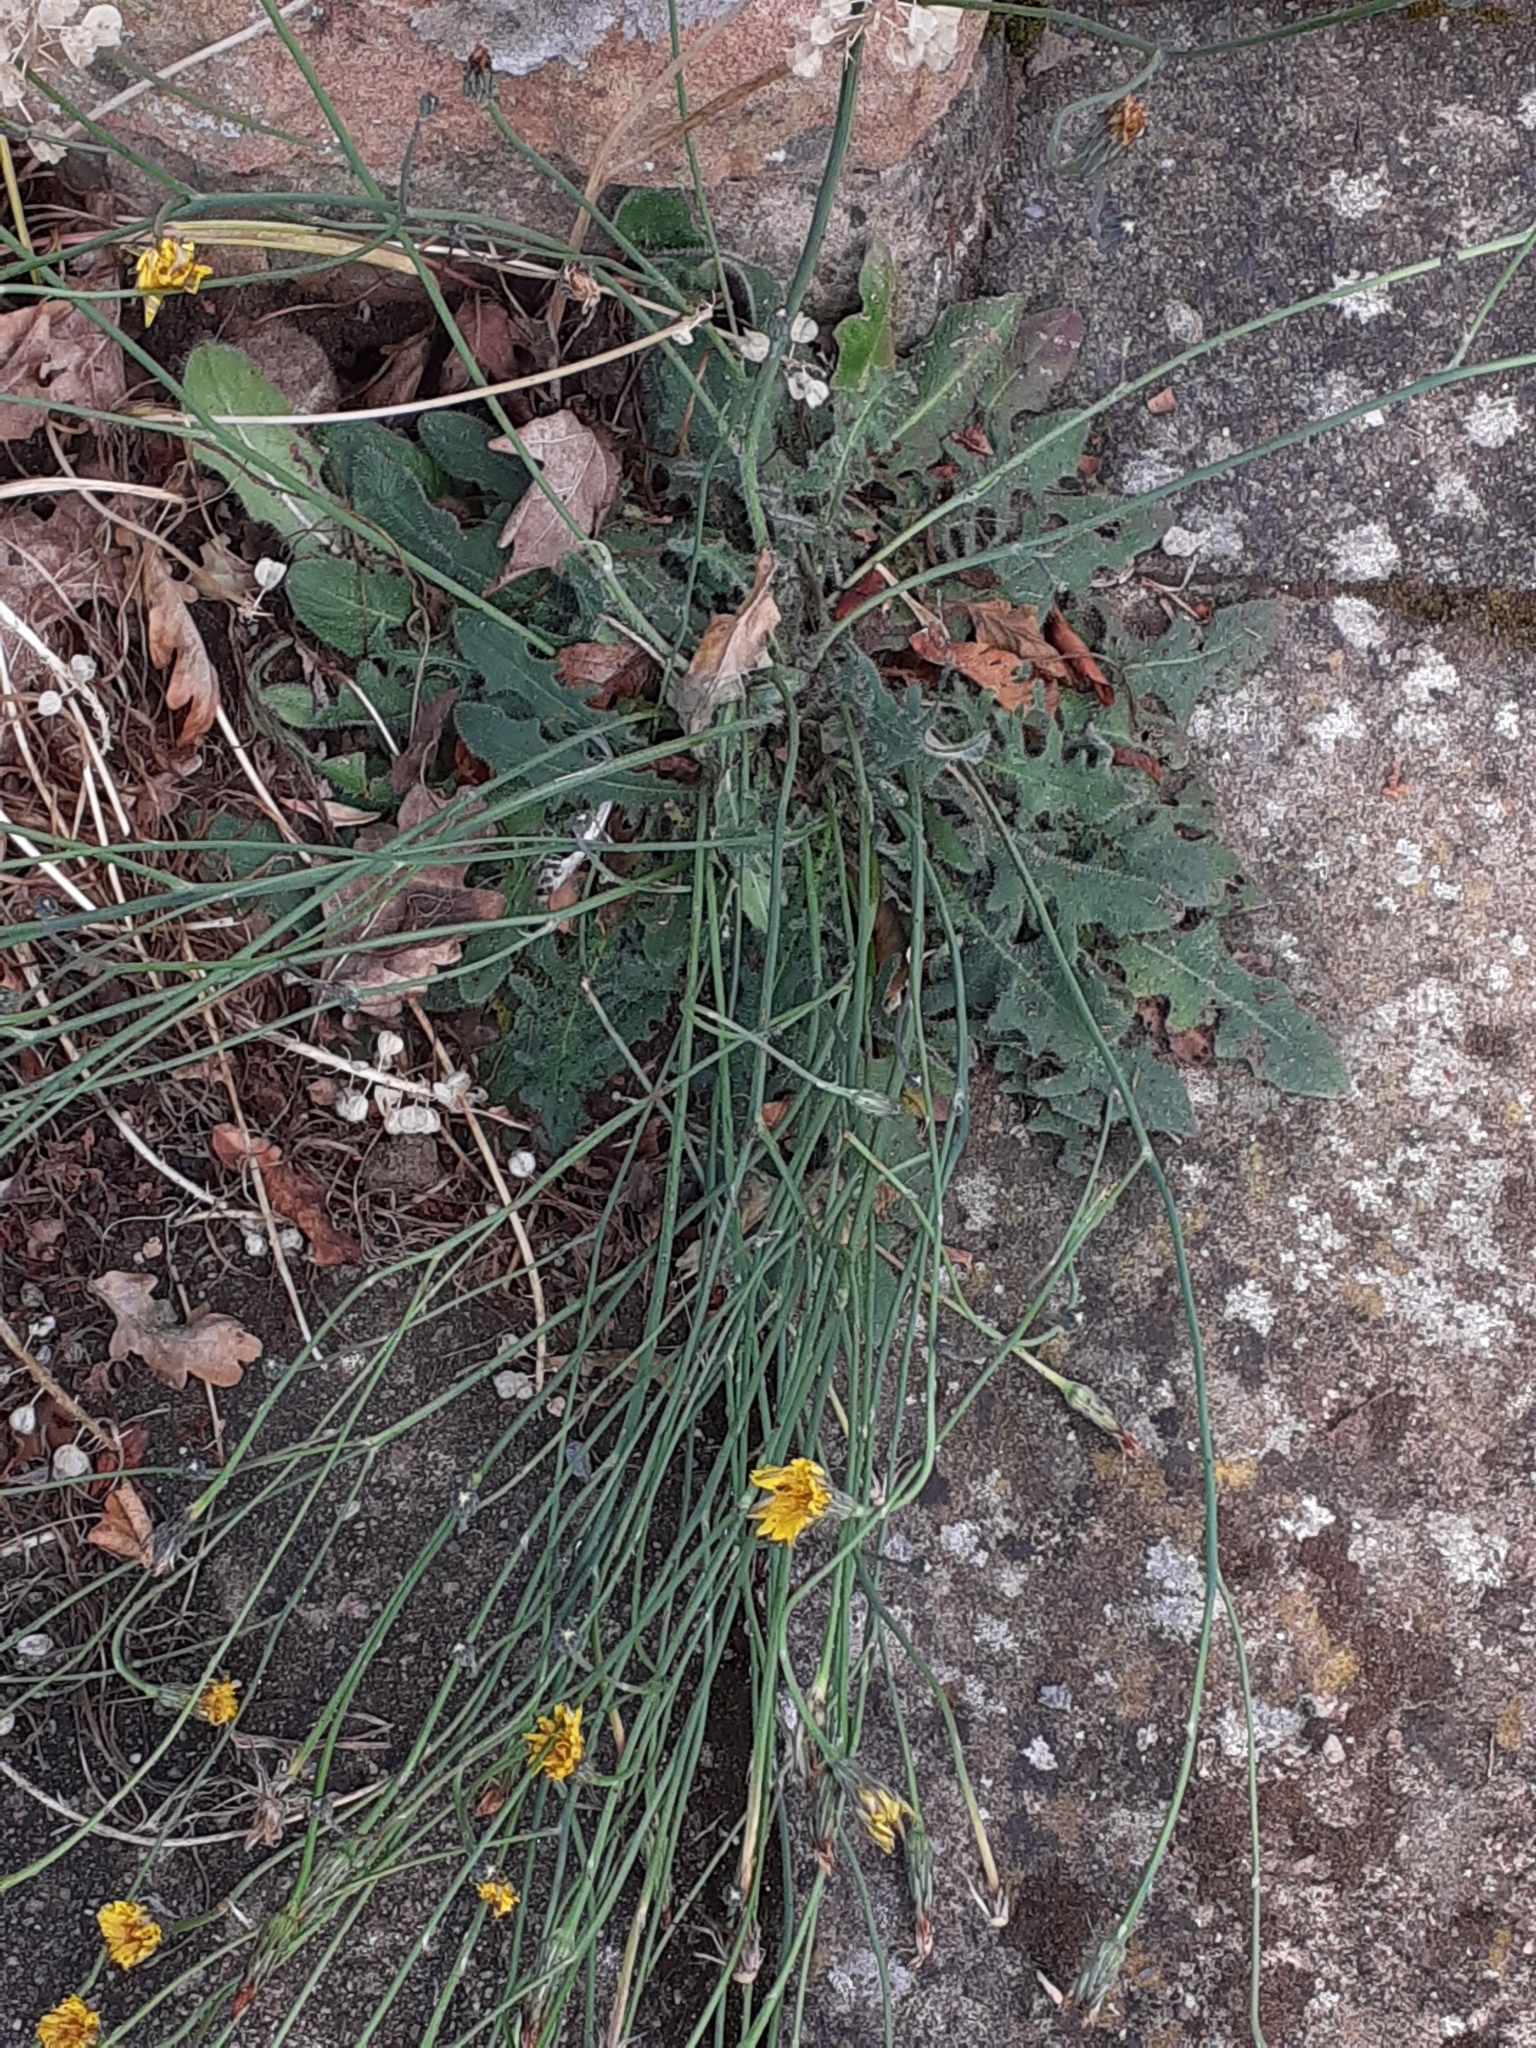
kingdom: Plantae
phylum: Tracheophyta
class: Magnoliopsida
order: Asterales
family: Asteraceae
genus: Hypochaeris
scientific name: Hypochaeris radicata
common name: Flatweed
